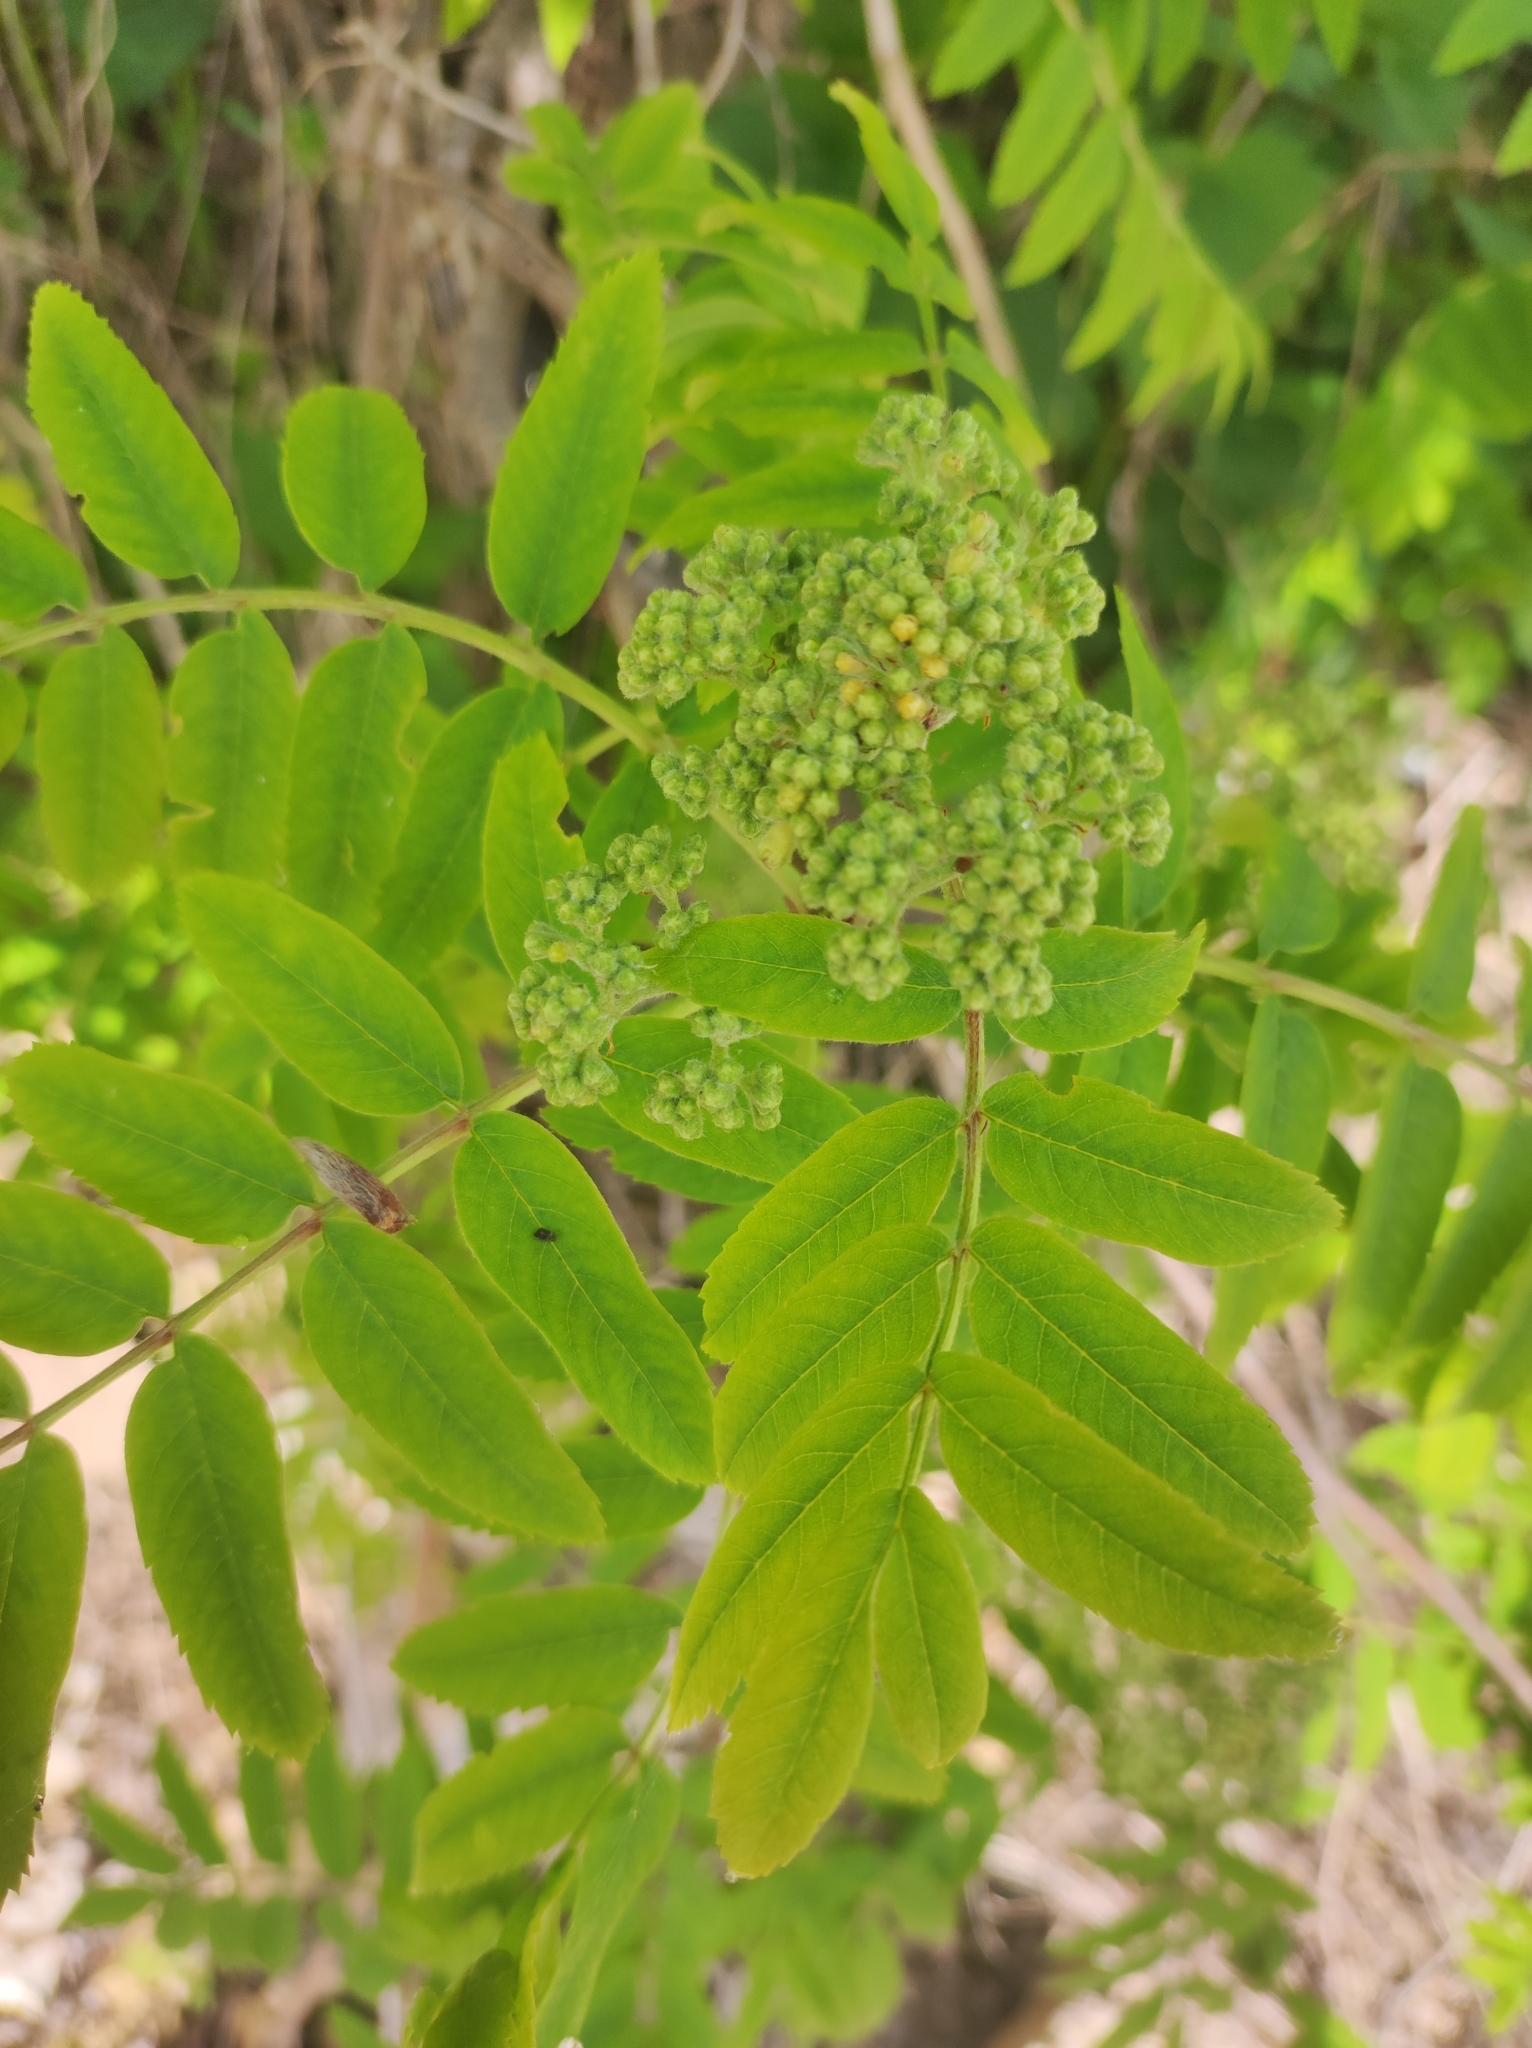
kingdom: Plantae
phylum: Tracheophyta
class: Magnoliopsida
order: Rosales
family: Rosaceae
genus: Sorbus
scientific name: Sorbus aucuparia
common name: Rowan
